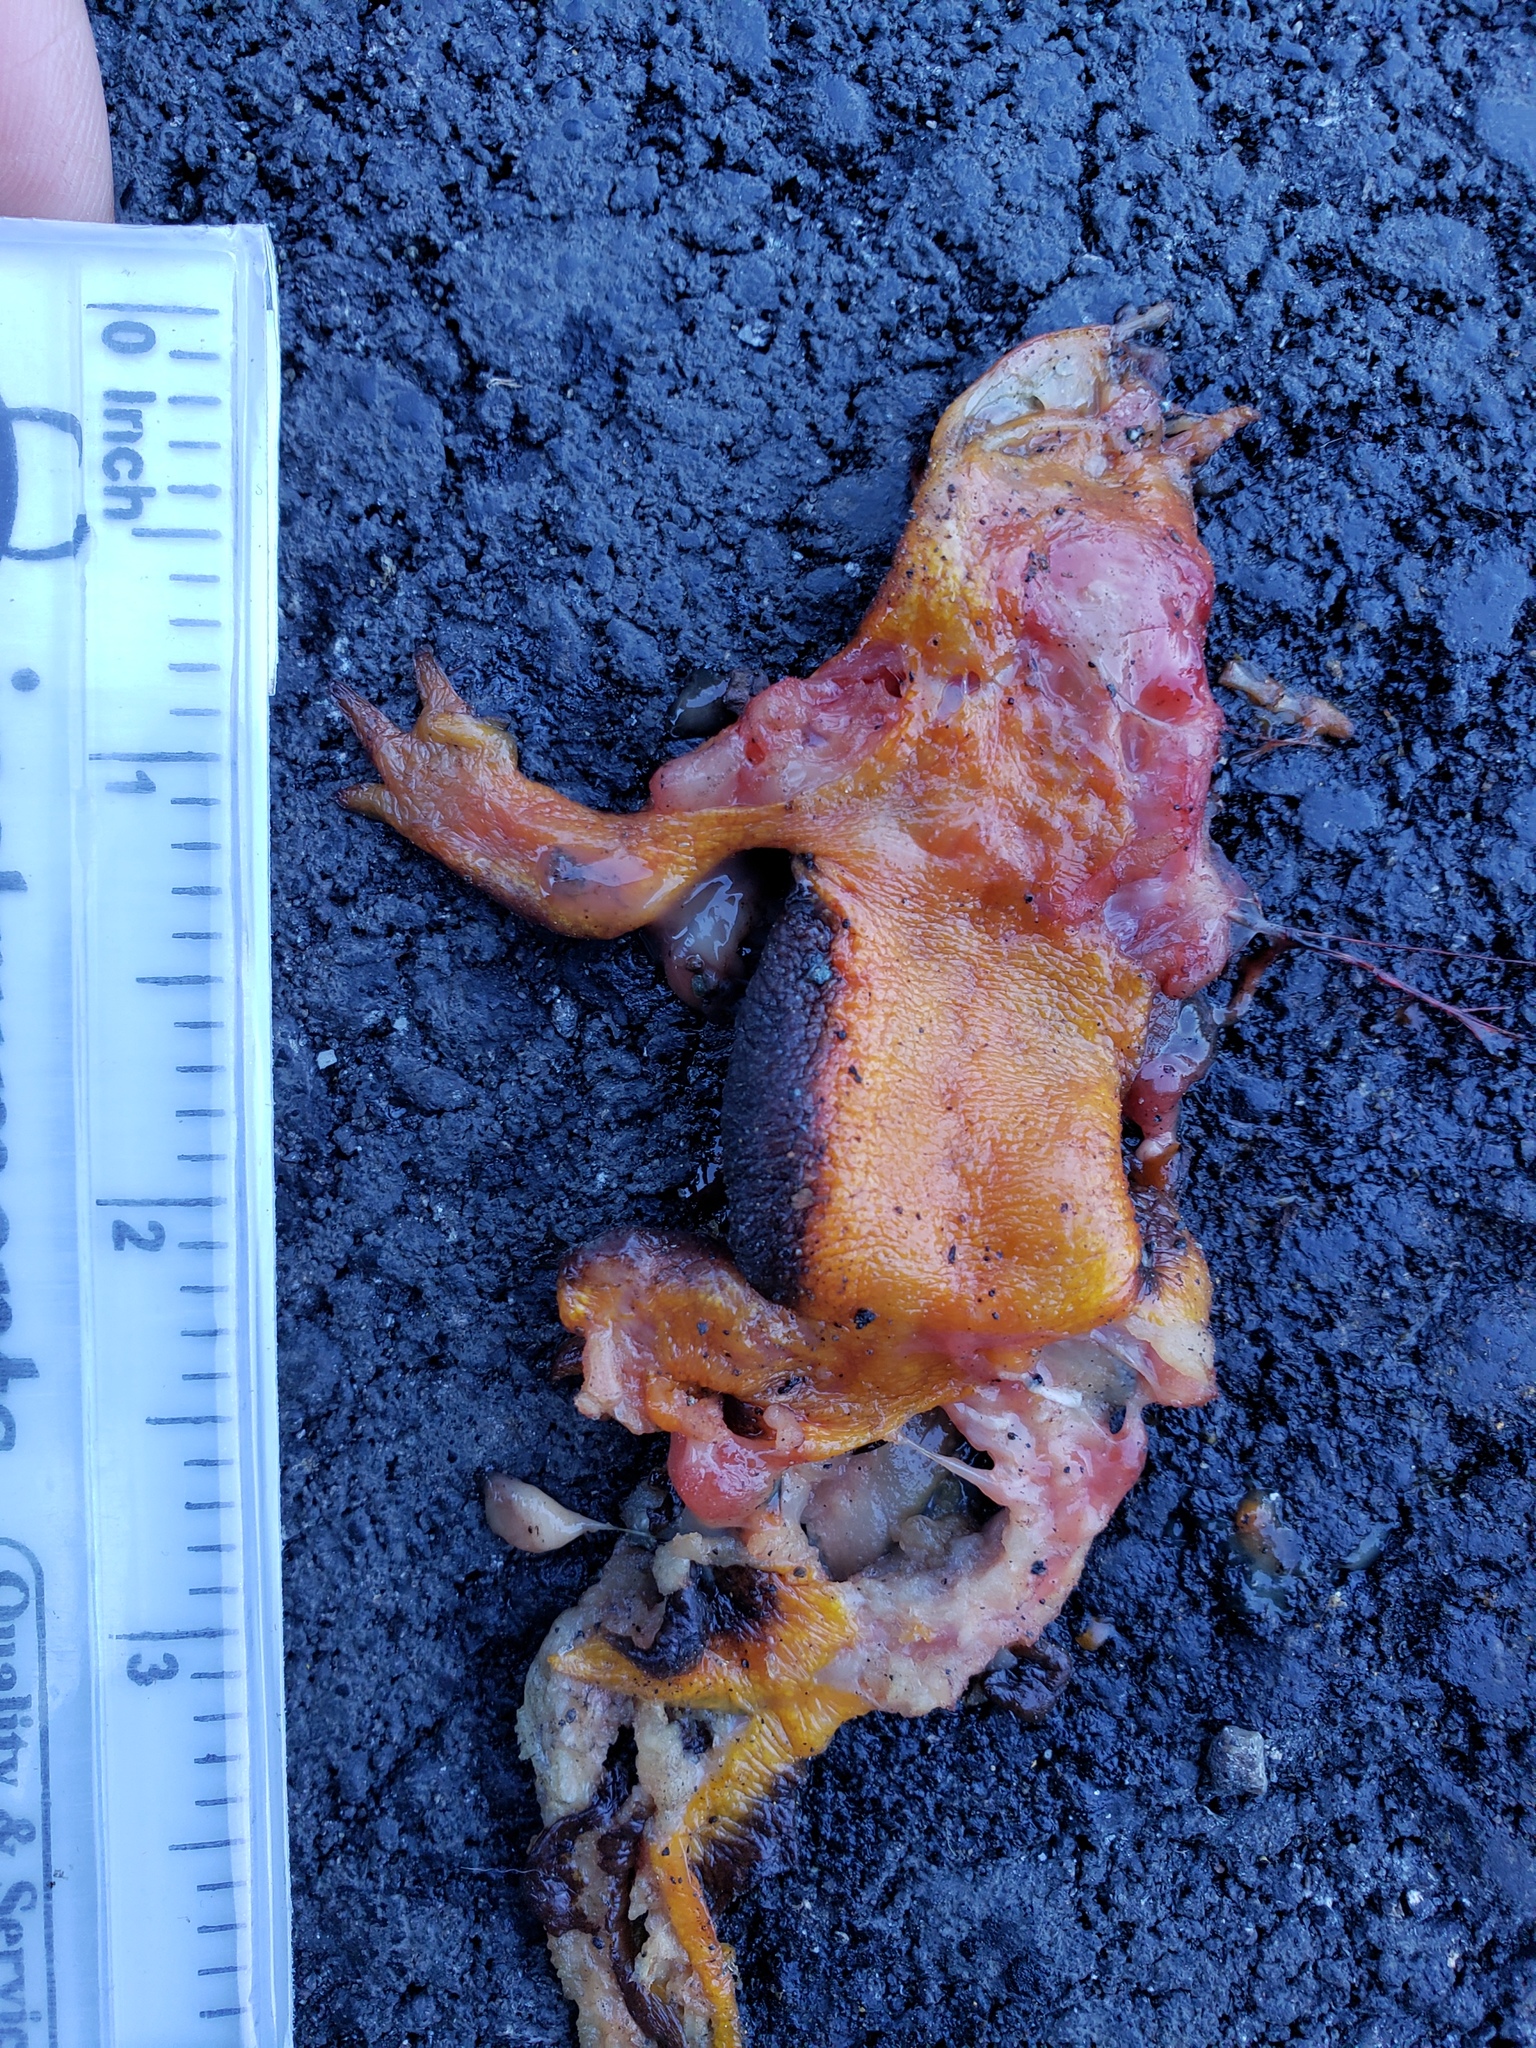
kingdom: Animalia
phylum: Chordata
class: Amphibia
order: Caudata
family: Salamandridae
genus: Taricha
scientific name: Taricha
